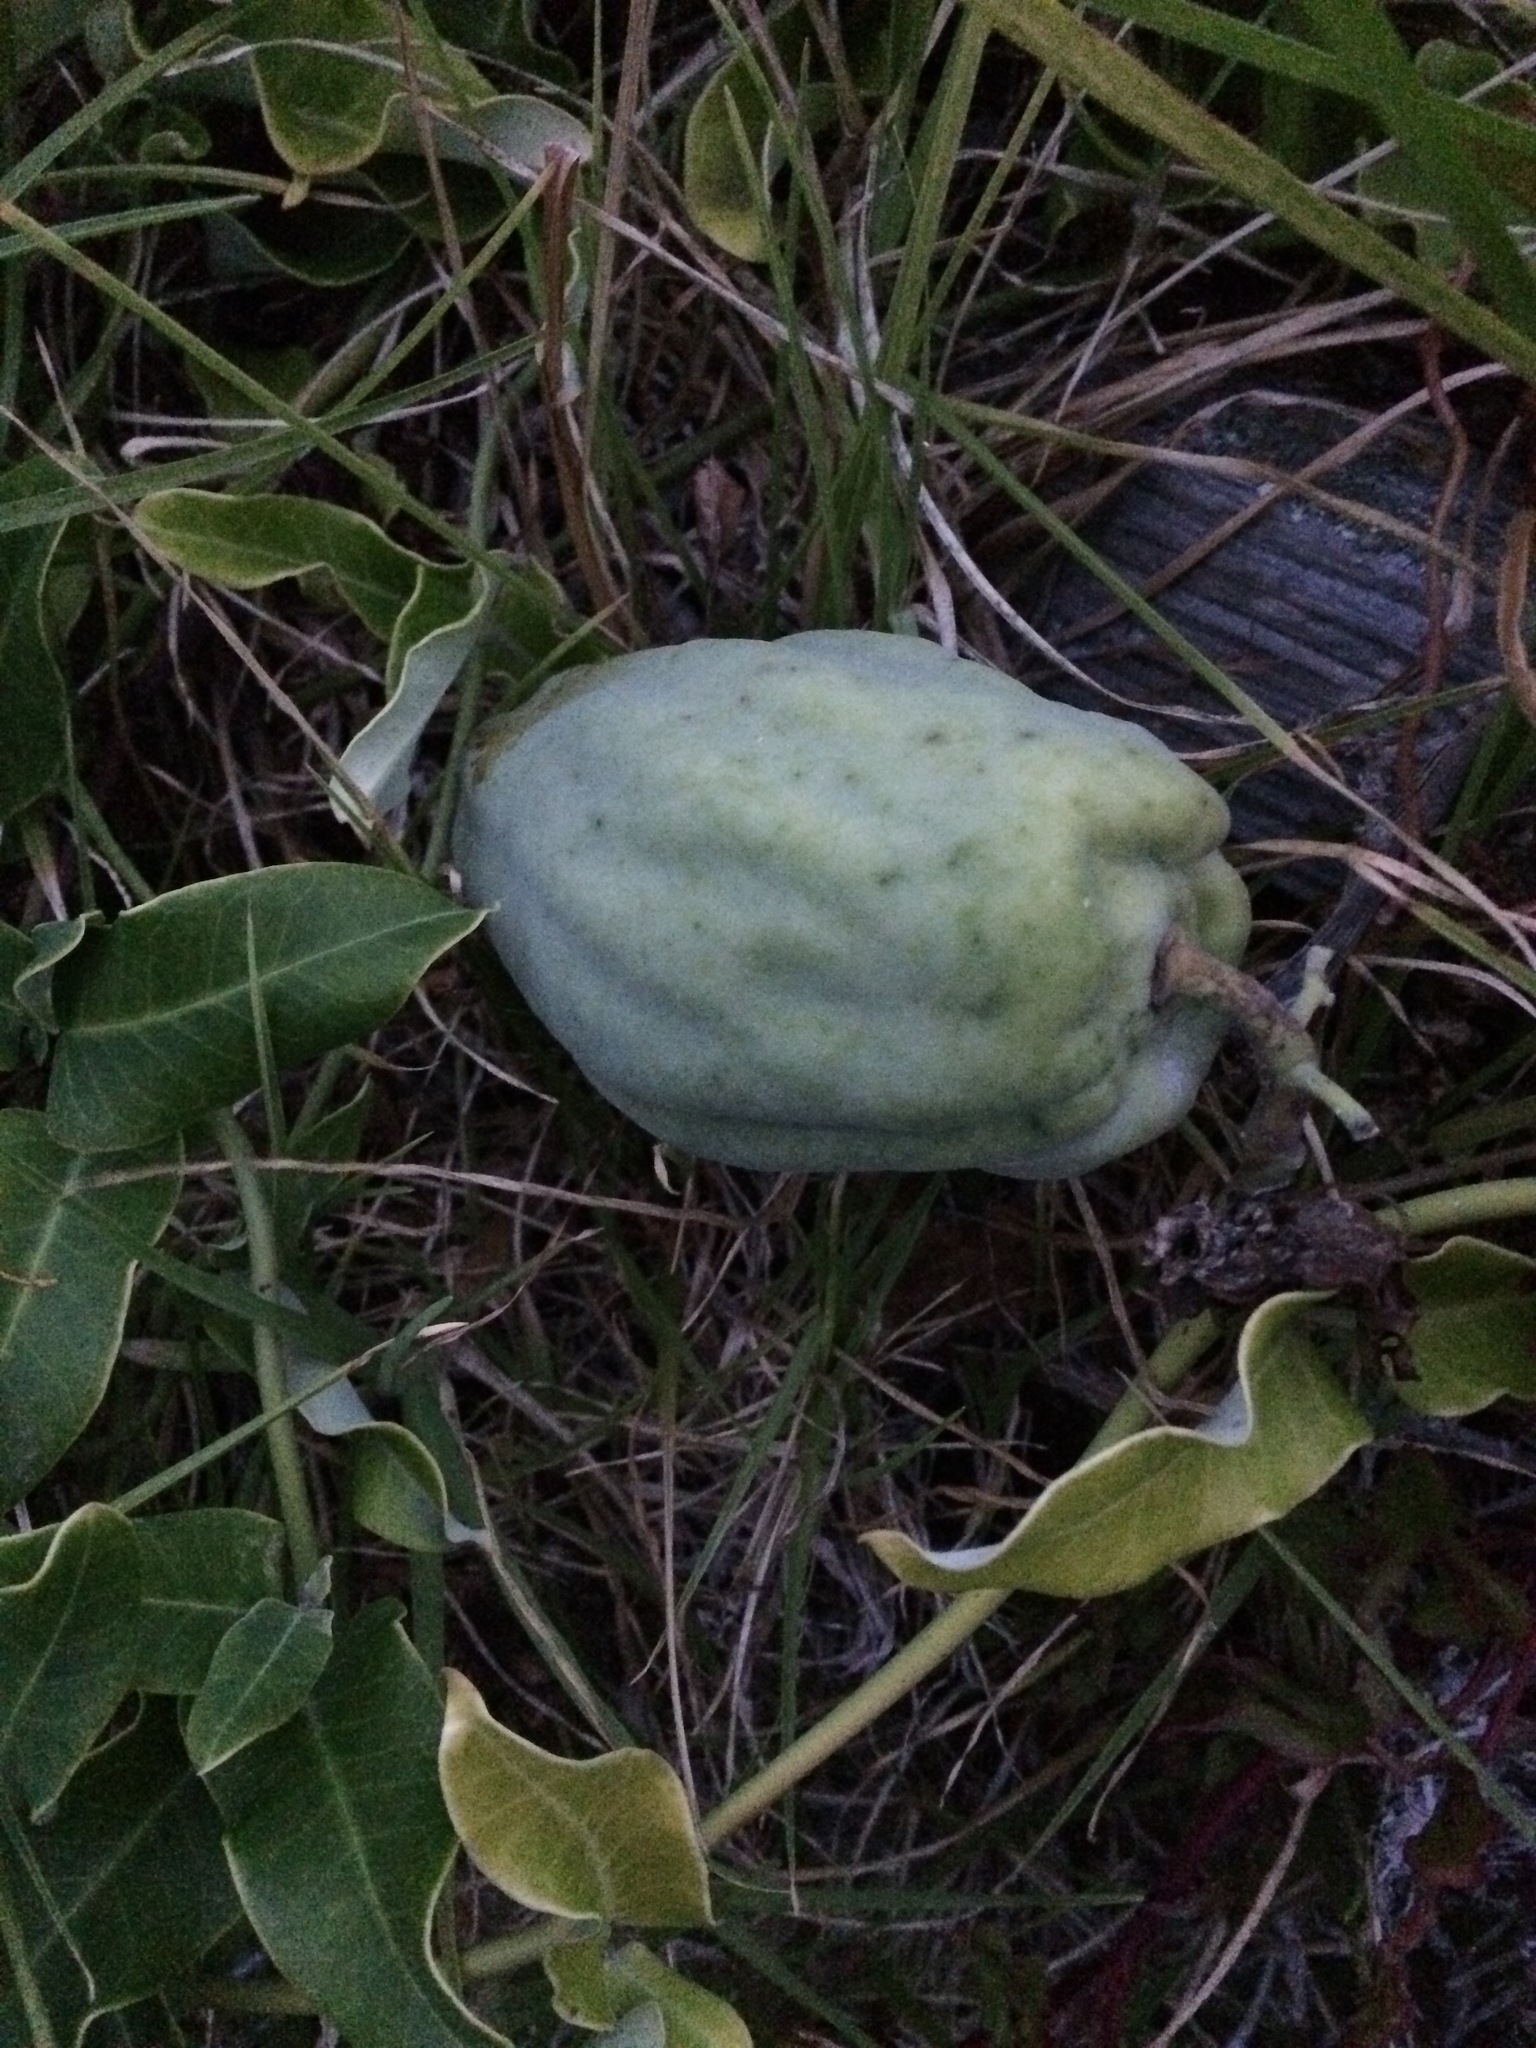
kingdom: Plantae
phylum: Tracheophyta
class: Magnoliopsida
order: Gentianales
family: Apocynaceae
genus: Araujia
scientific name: Araujia sericifera
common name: White bladderflower
